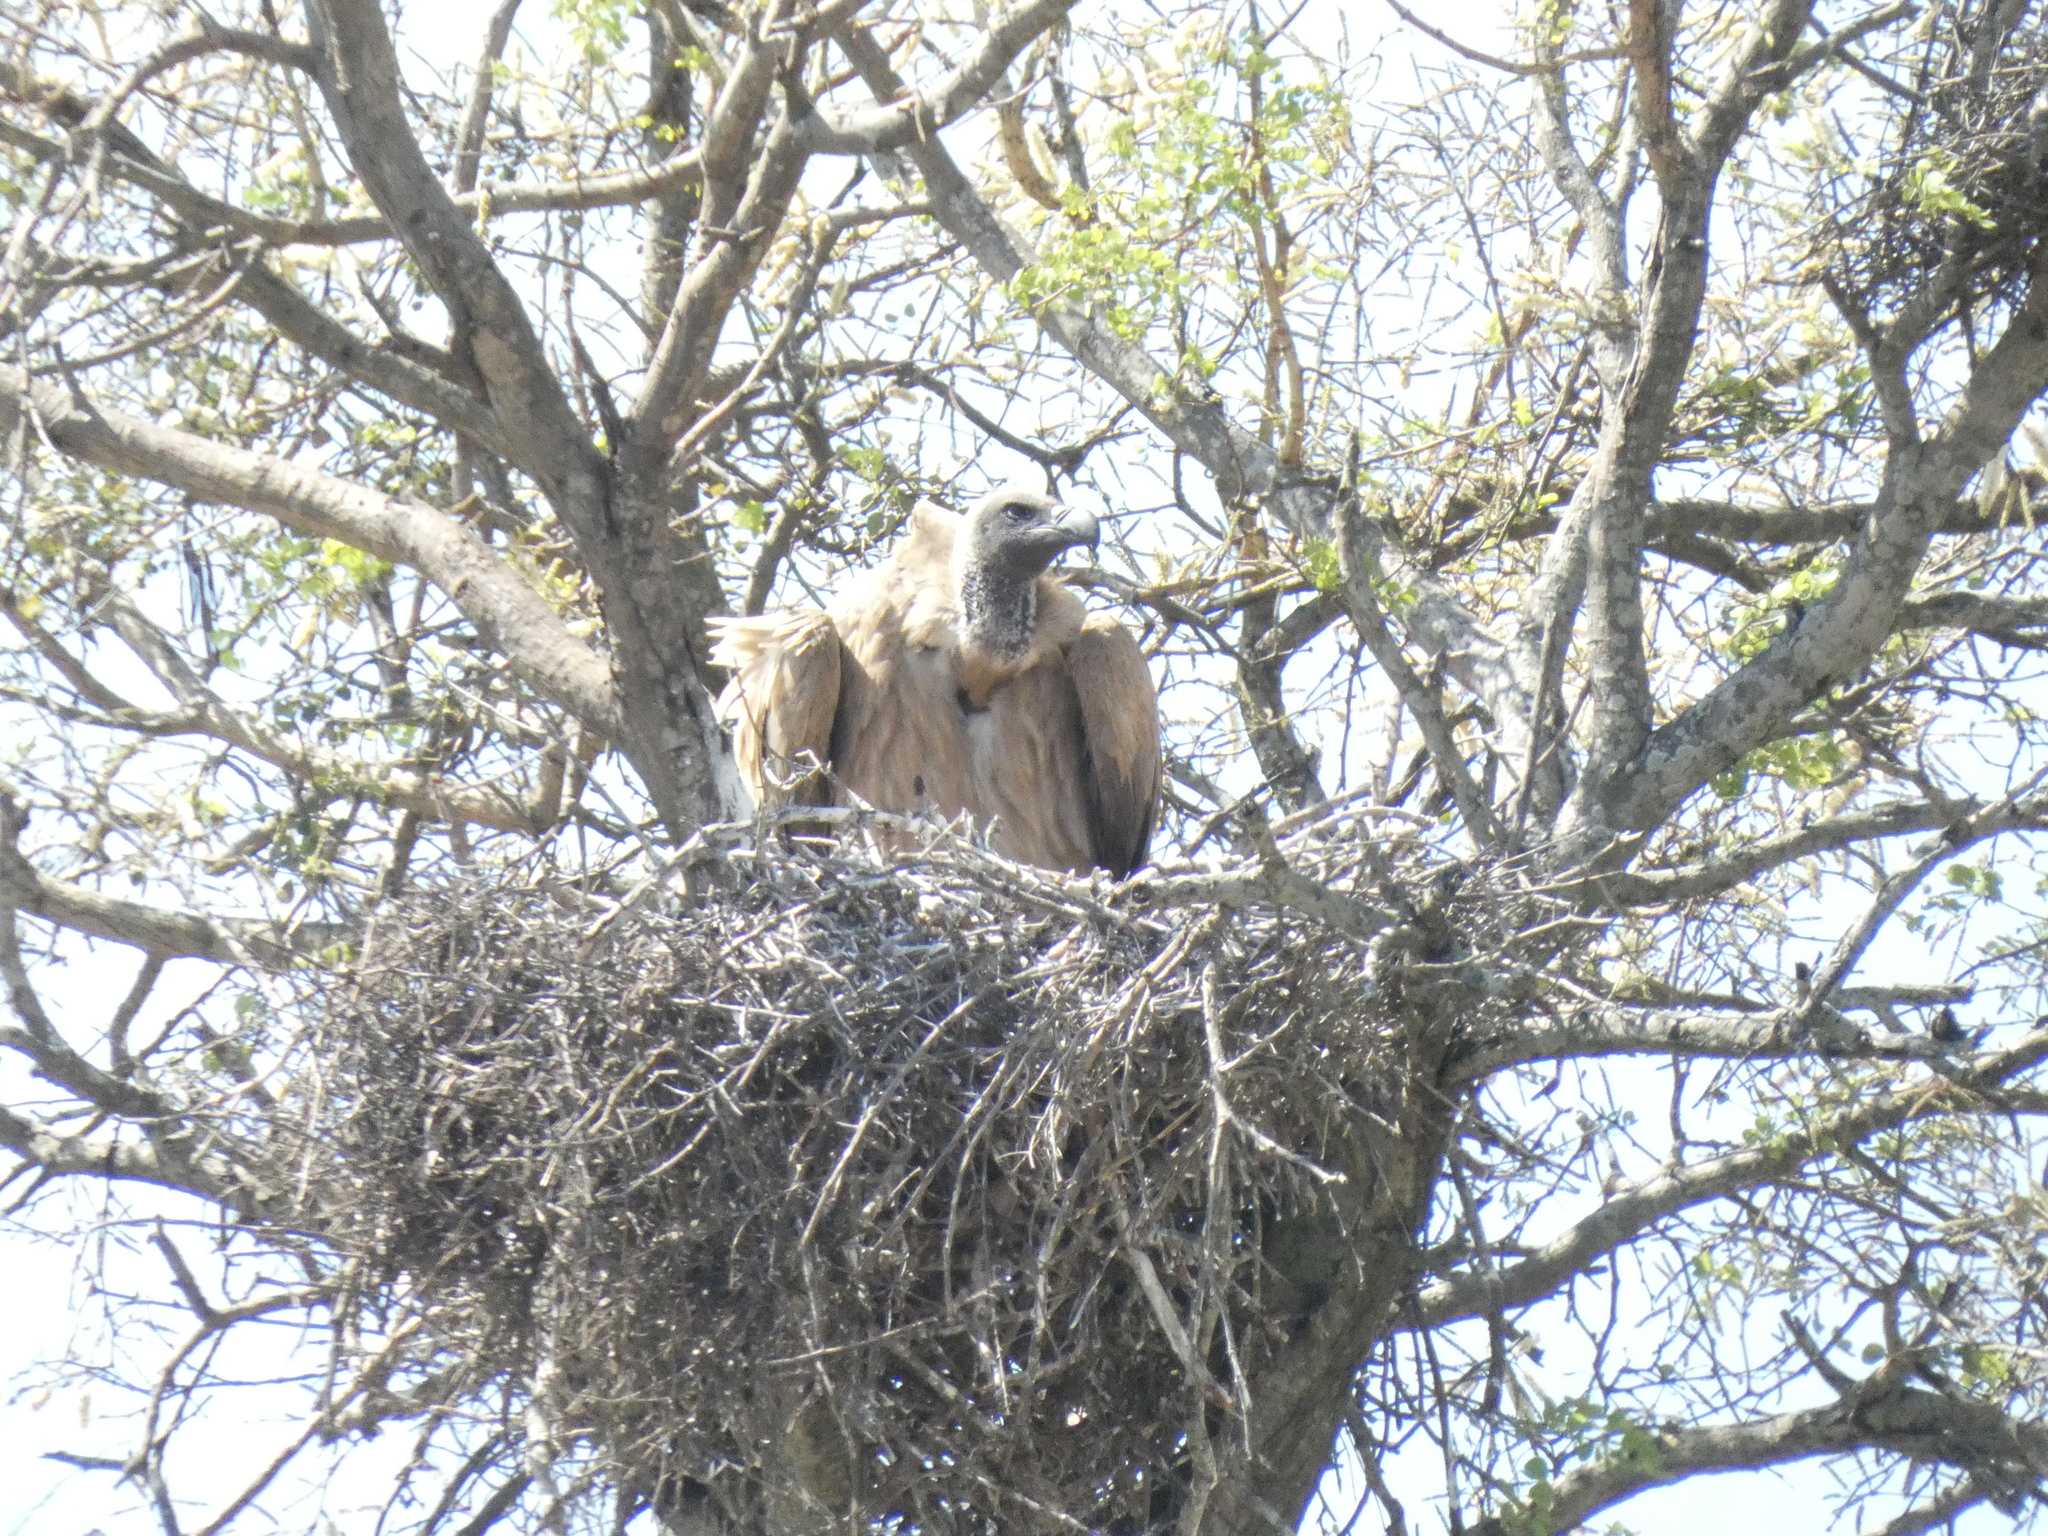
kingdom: Animalia
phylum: Chordata
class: Aves
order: Accipitriformes
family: Accipitridae
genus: Gyps
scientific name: Gyps africanus
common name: White-backed vulture
